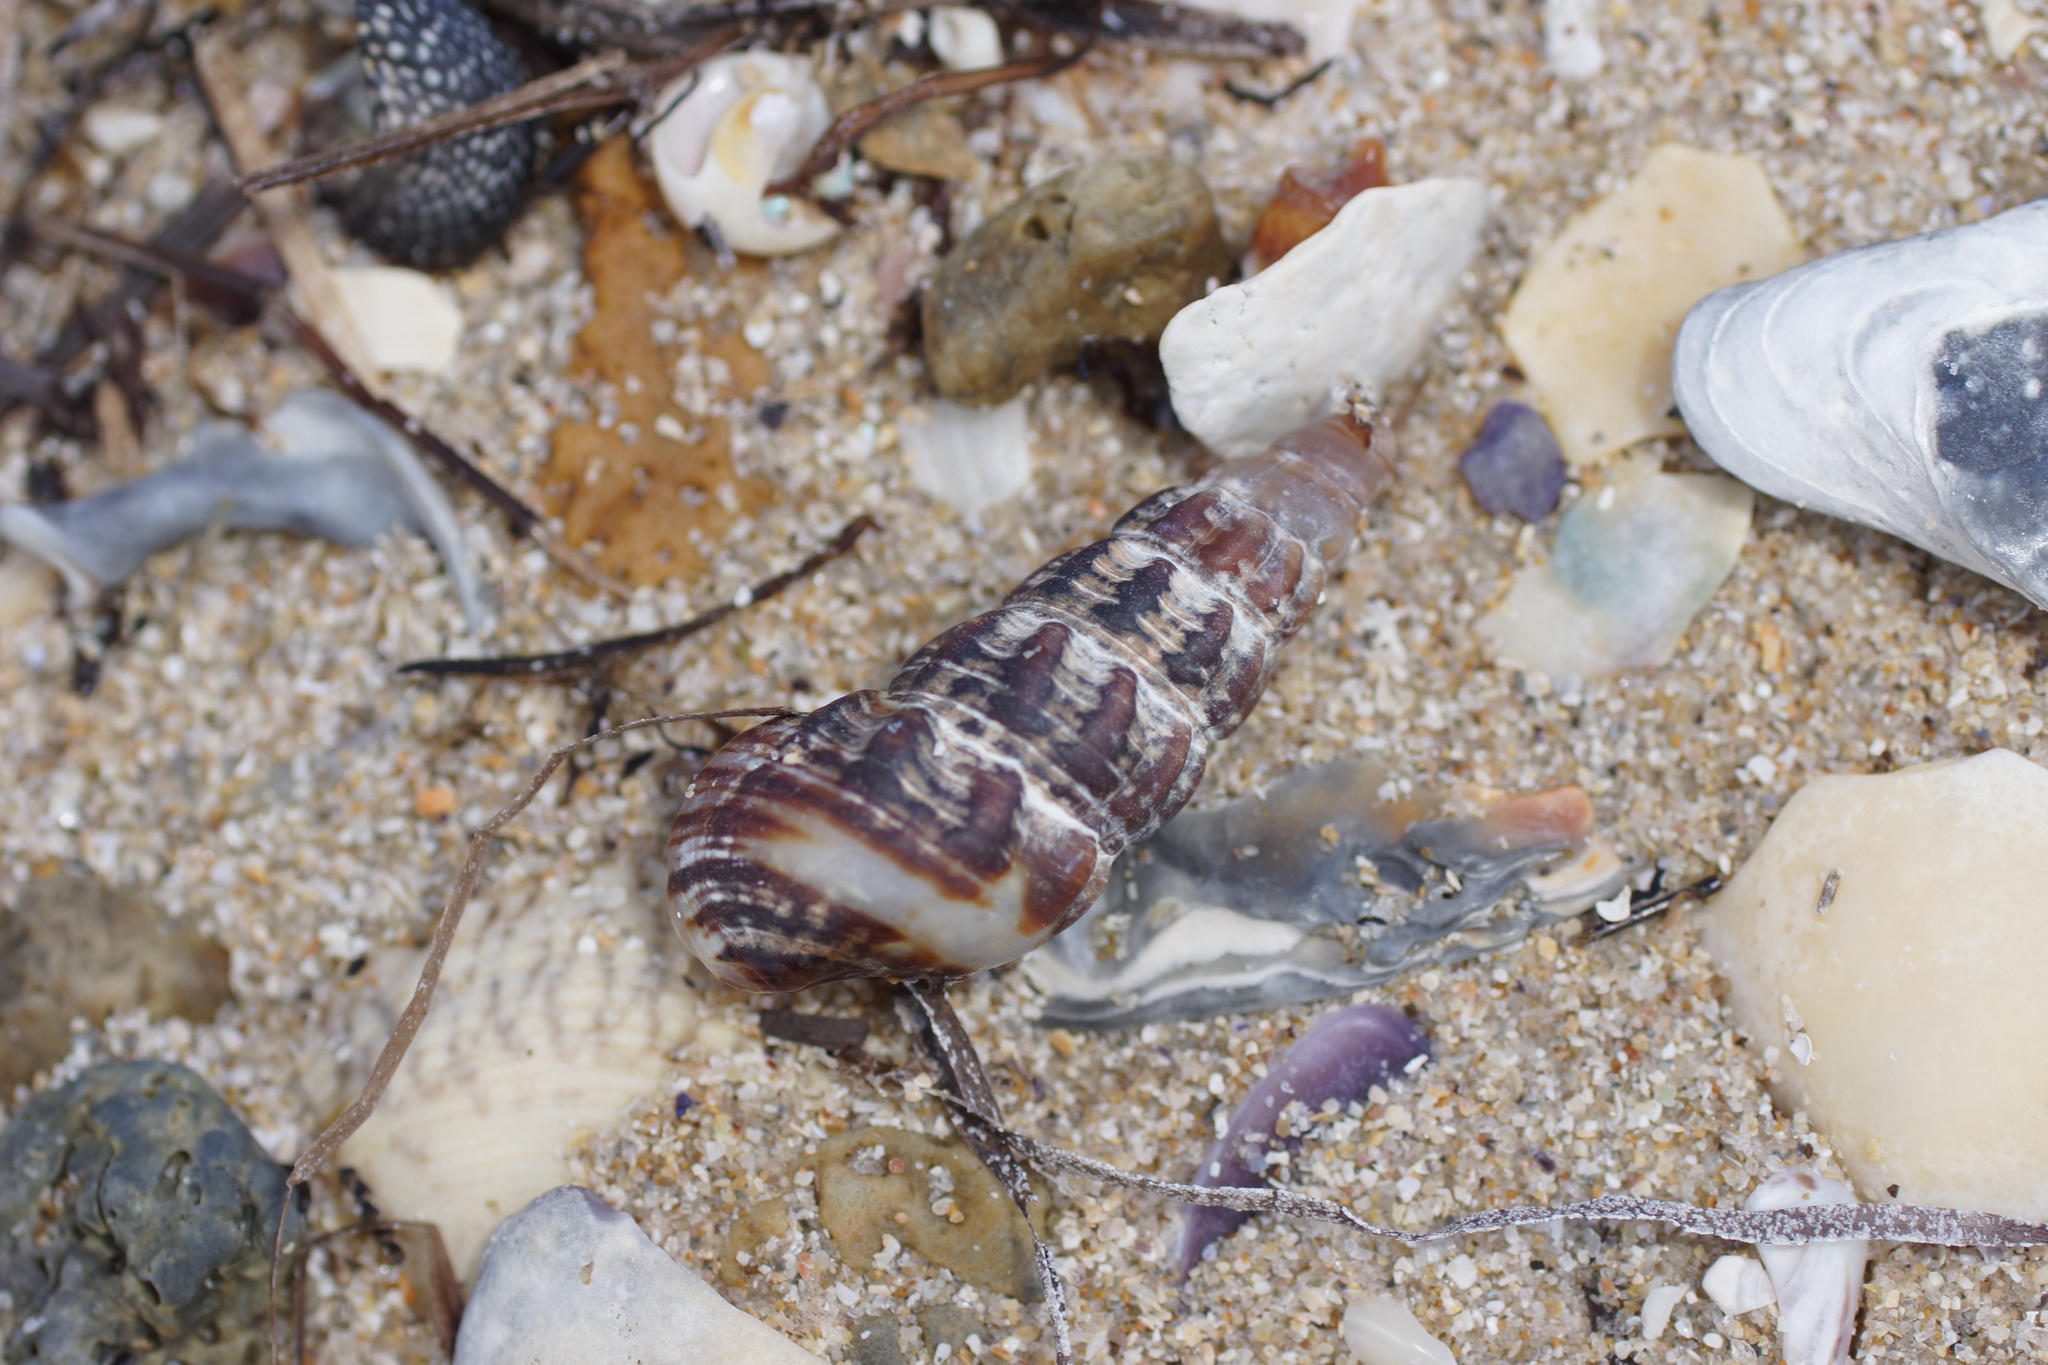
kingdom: Animalia
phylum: Mollusca
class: Gastropoda
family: Batillariidae
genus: Batillaria
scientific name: Batillaria australis
